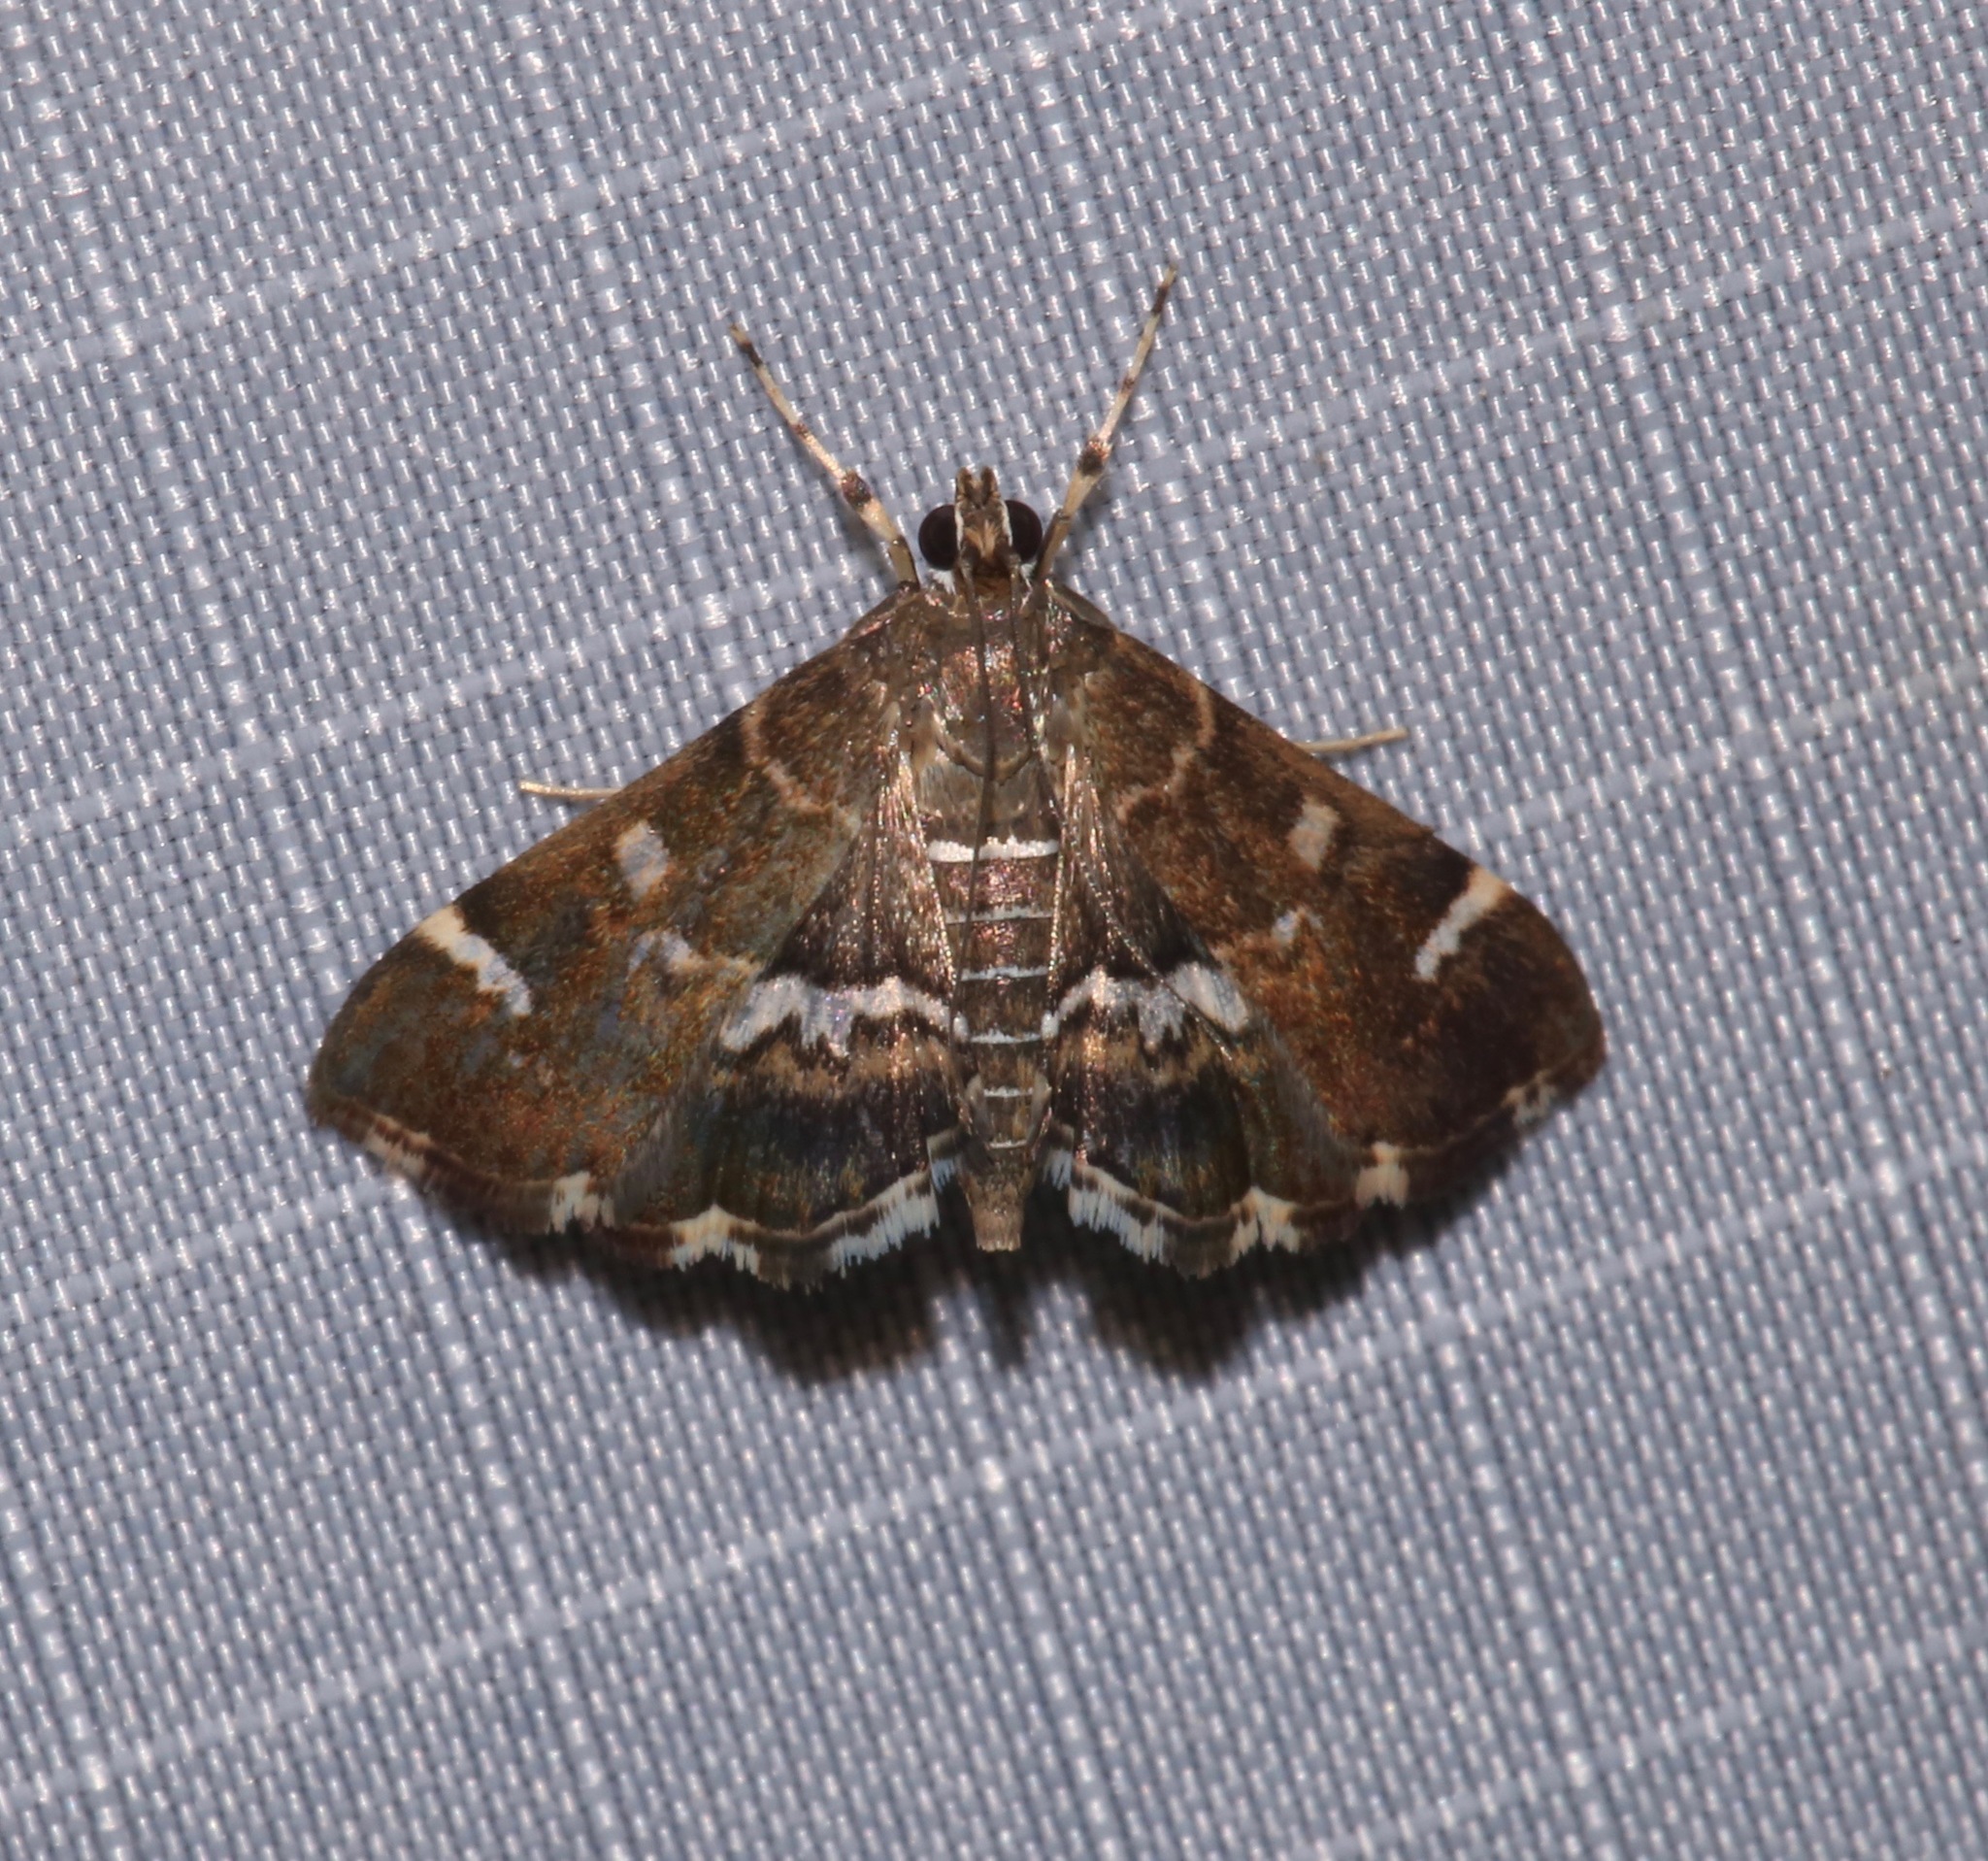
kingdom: Animalia
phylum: Arthropoda
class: Insecta
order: Lepidoptera
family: Crambidae
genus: Hymenia
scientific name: Hymenia perspectalis
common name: Spotted beet webworm
